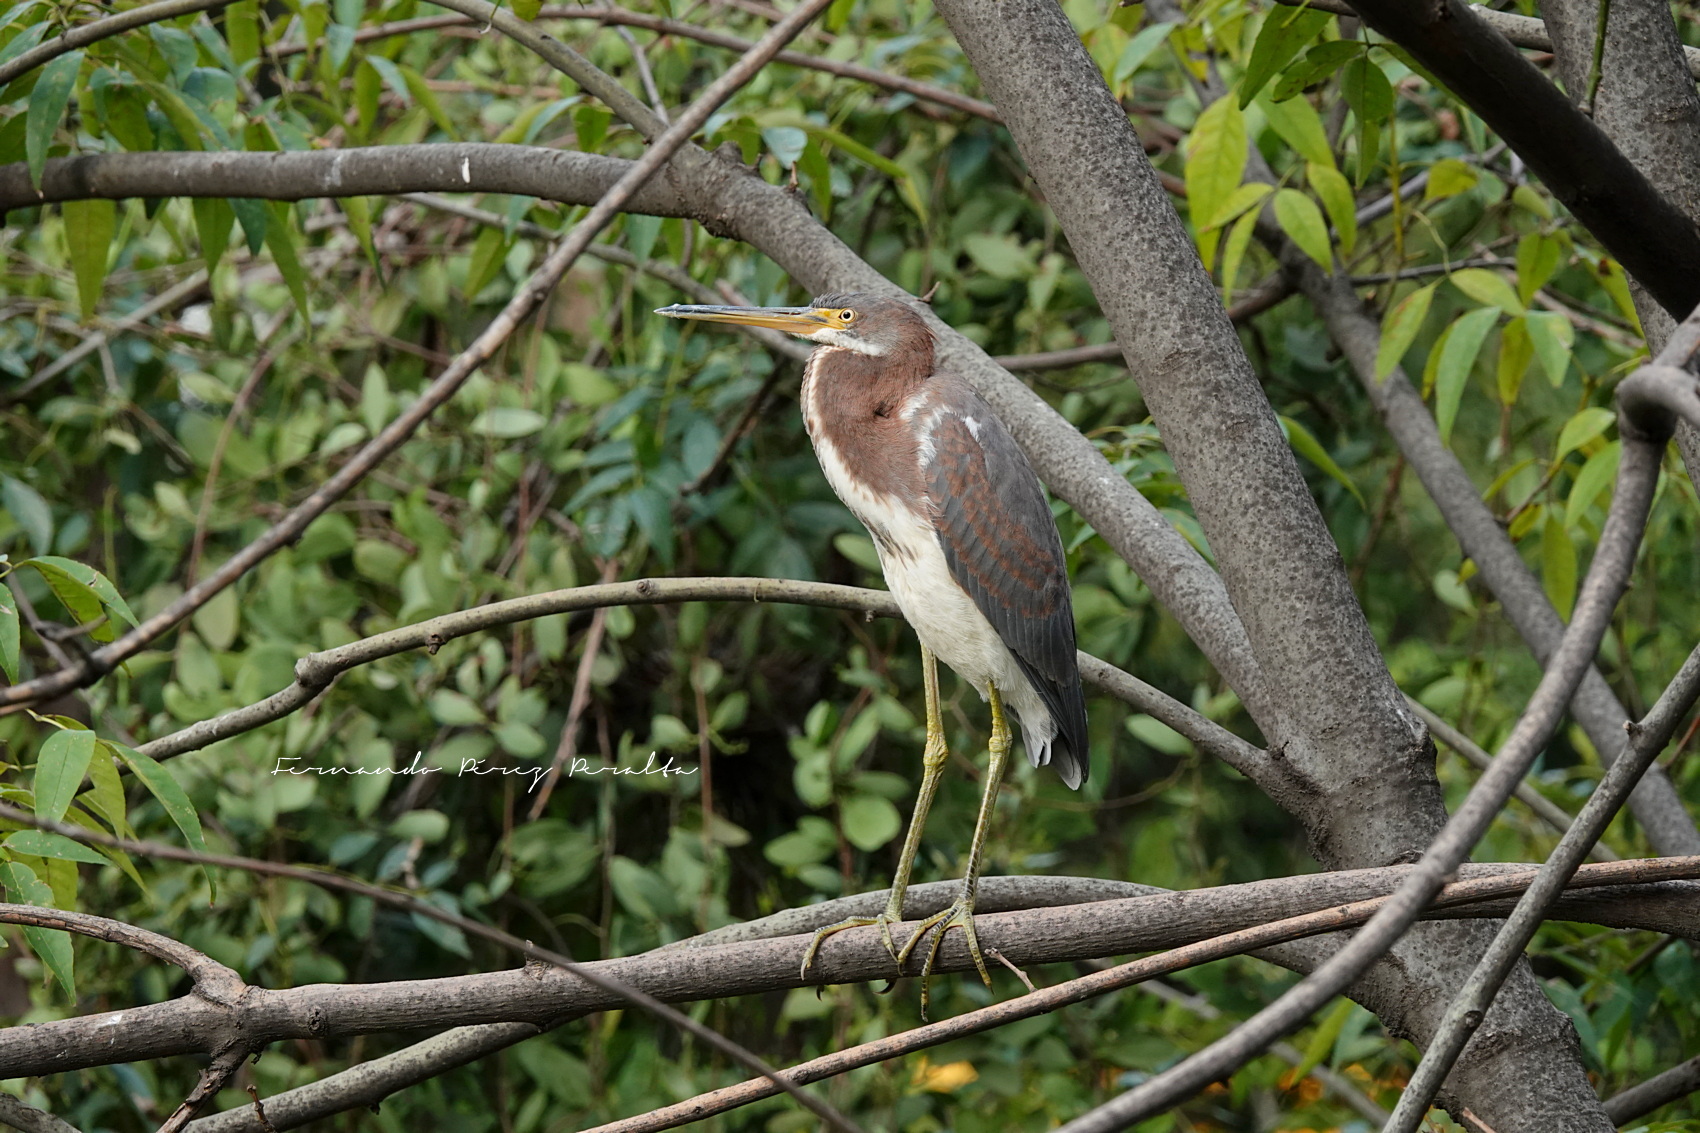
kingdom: Animalia
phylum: Chordata
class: Aves
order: Pelecaniformes
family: Ardeidae
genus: Egretta
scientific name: Egretta tricolor
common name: Tricolored heron
